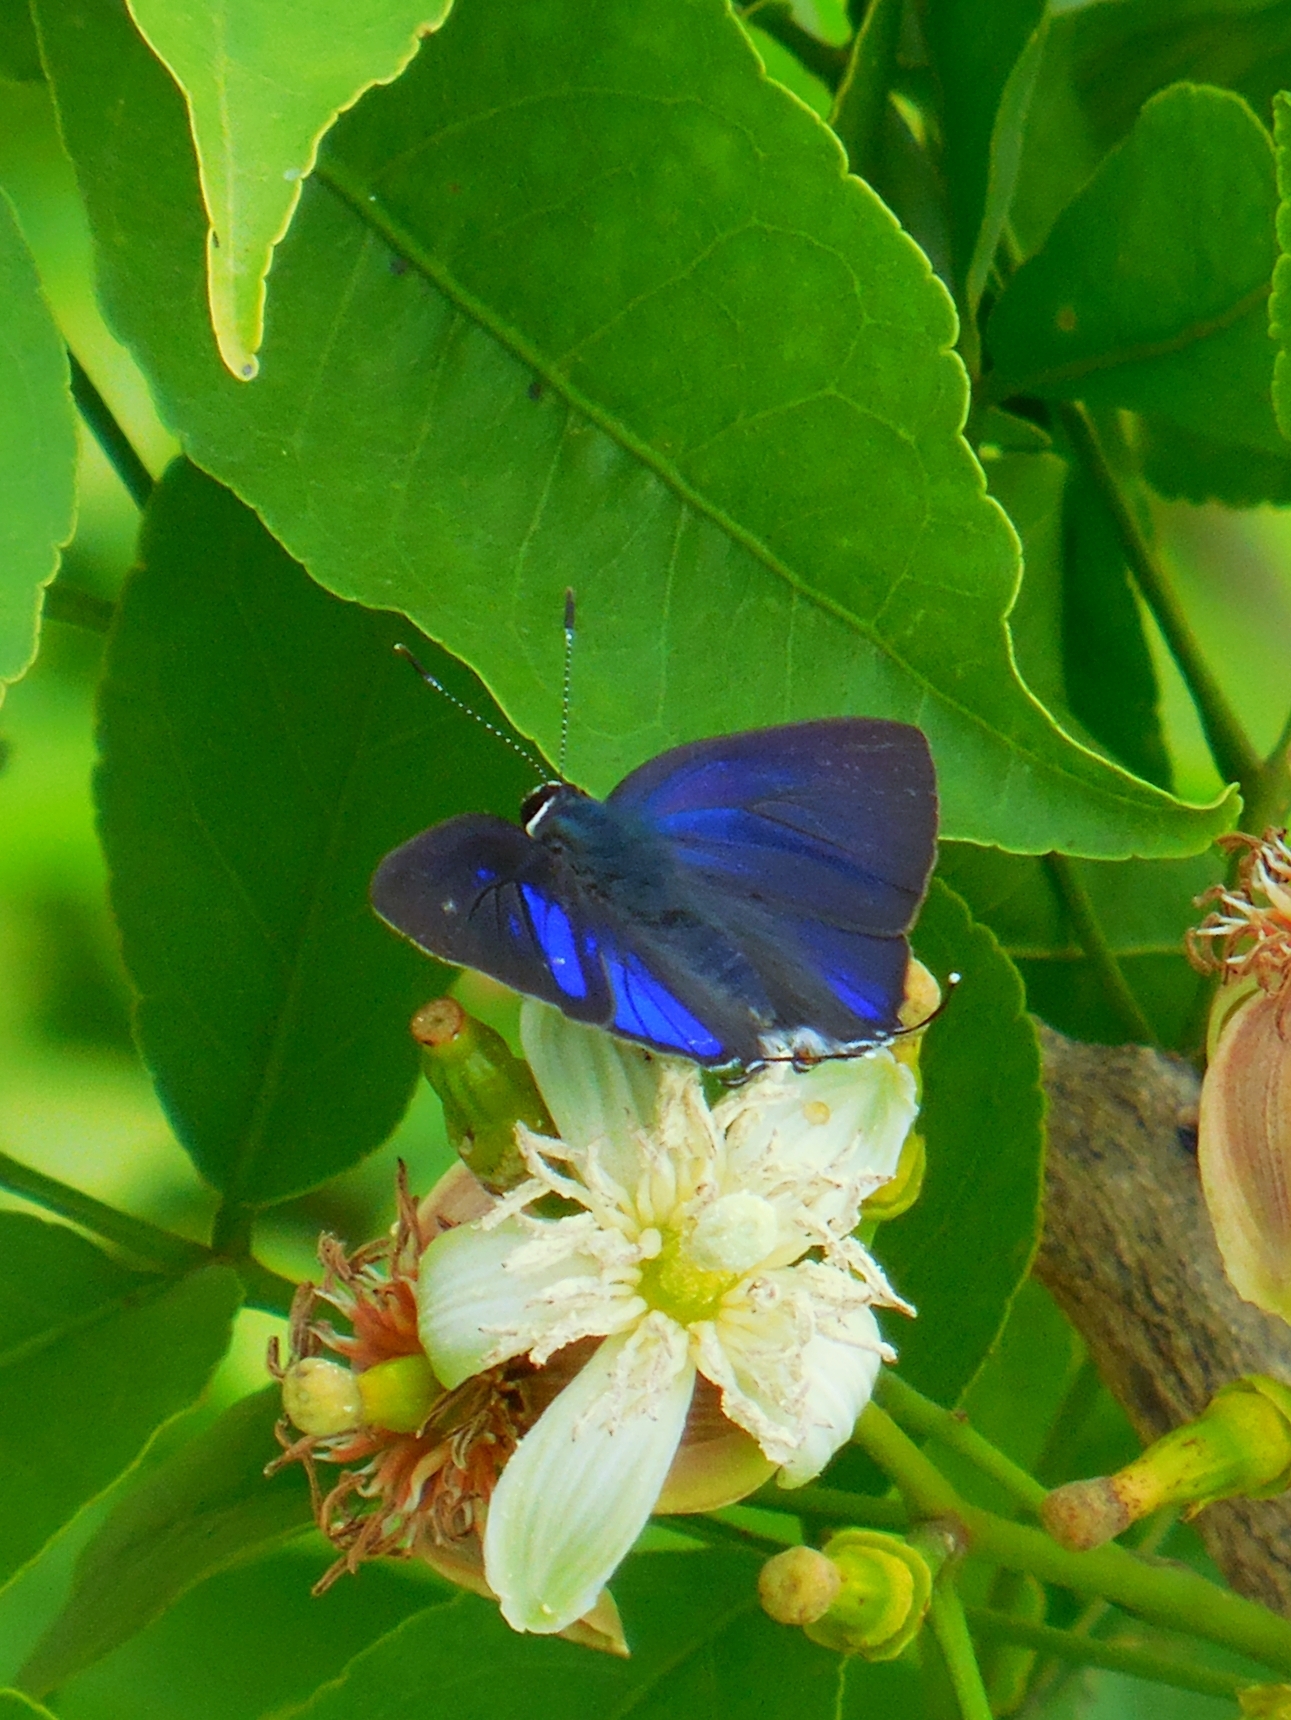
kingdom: Animalia
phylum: Arthropoda
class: Insecta
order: Lepidoptera
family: Lycaenidae
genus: Hypolycaena
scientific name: Hypolycaena erylus
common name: Common tit
